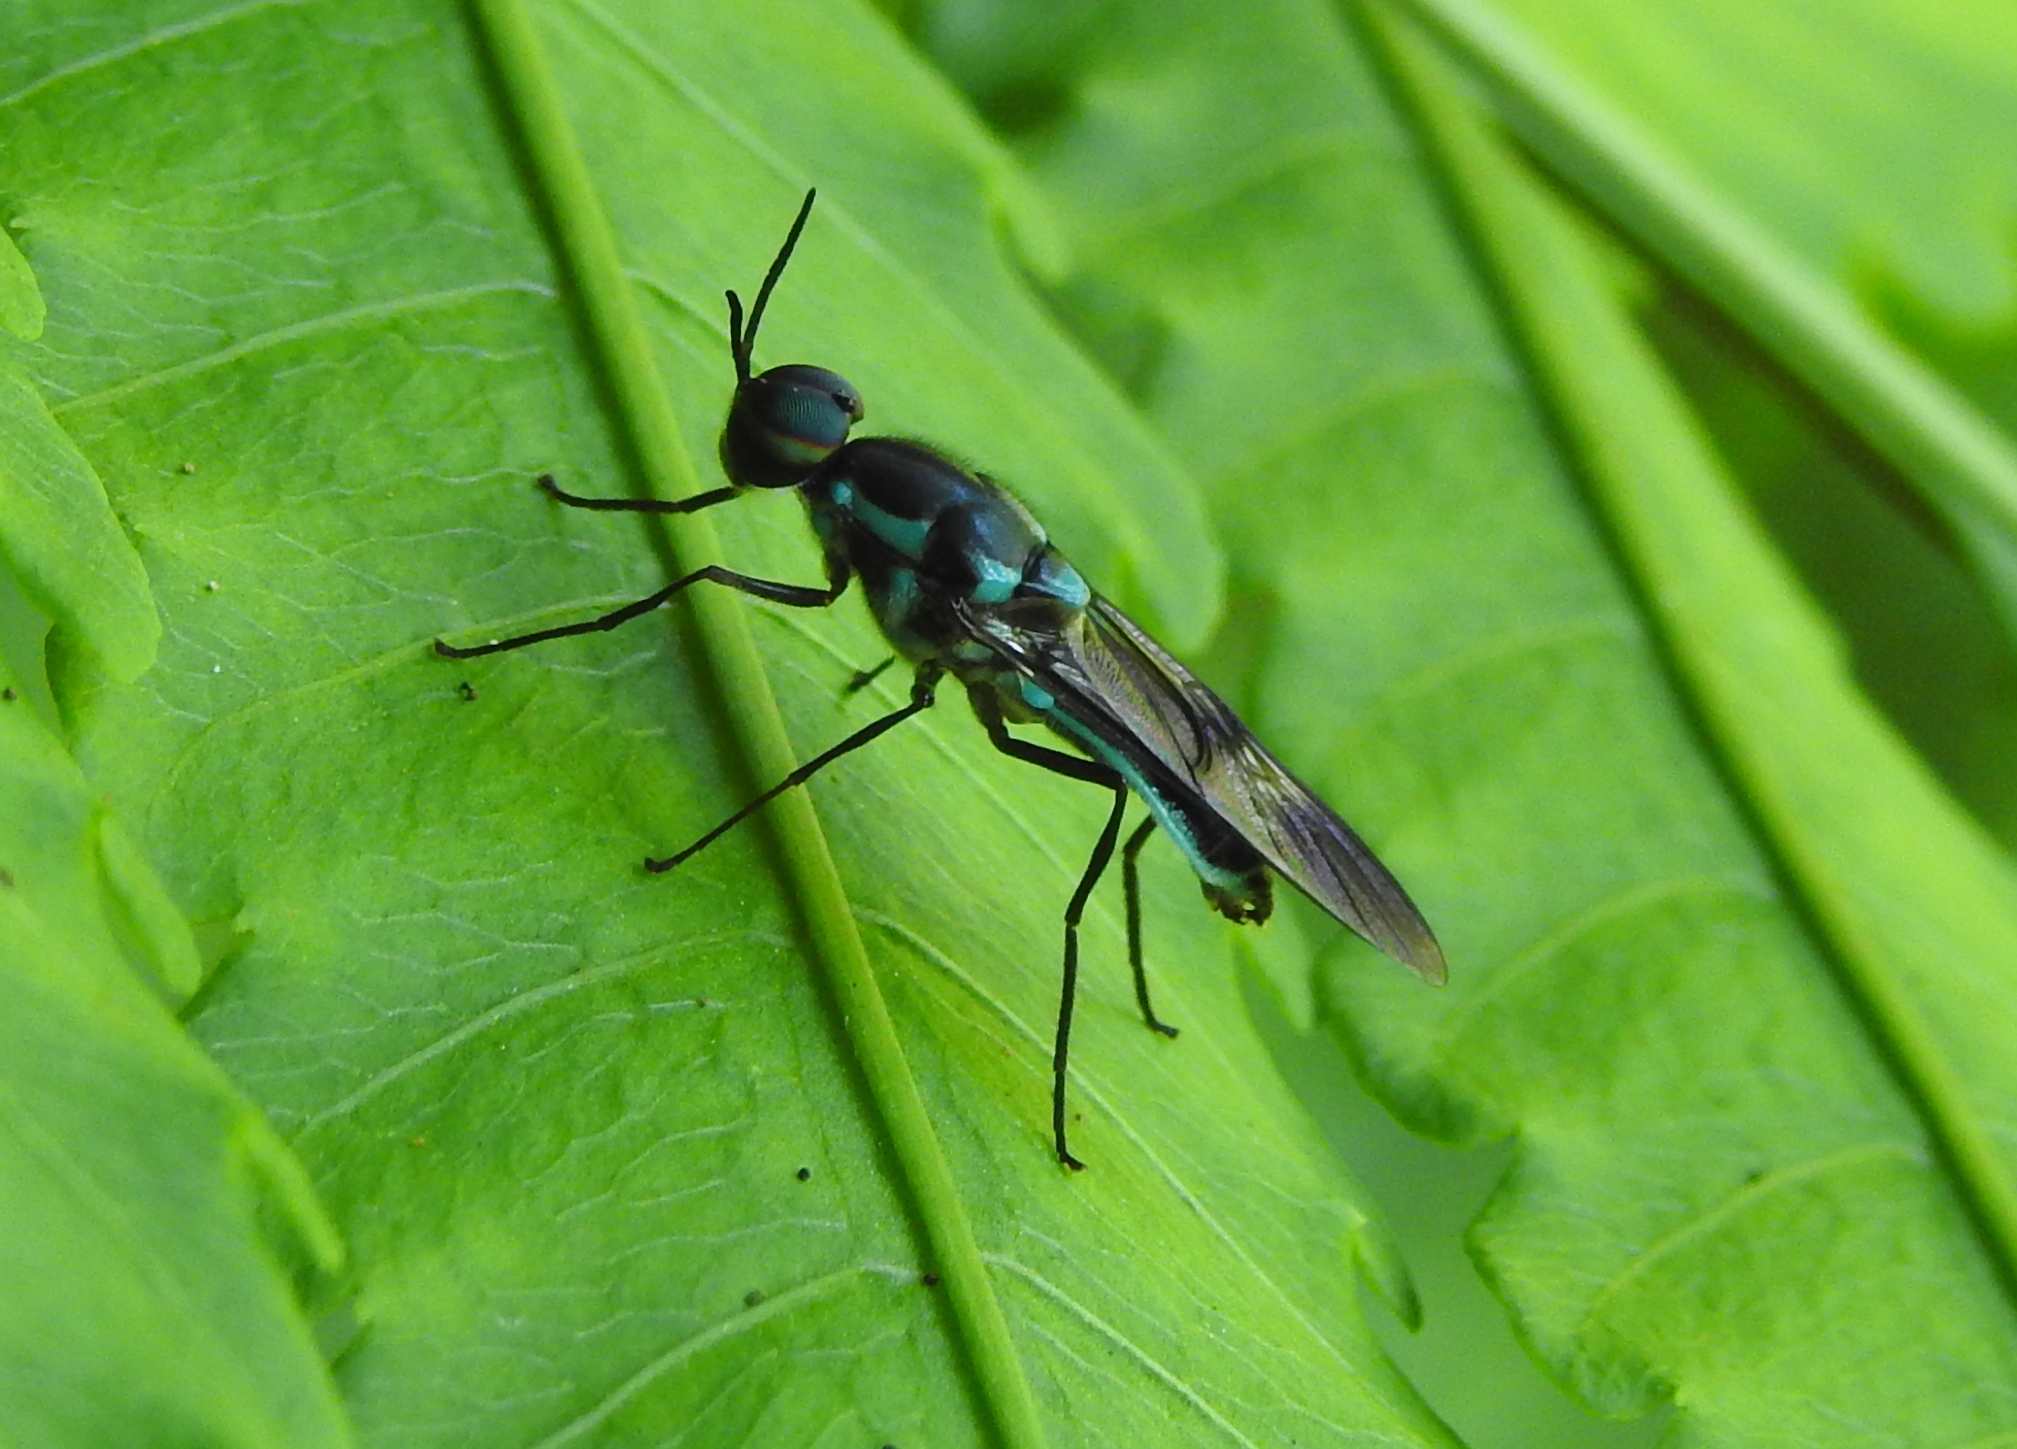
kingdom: Animalia
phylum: Arthropoda
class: Insecta
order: Diptera
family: Stratiomyidae
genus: Eudmeta
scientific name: Eudmeta marginata
